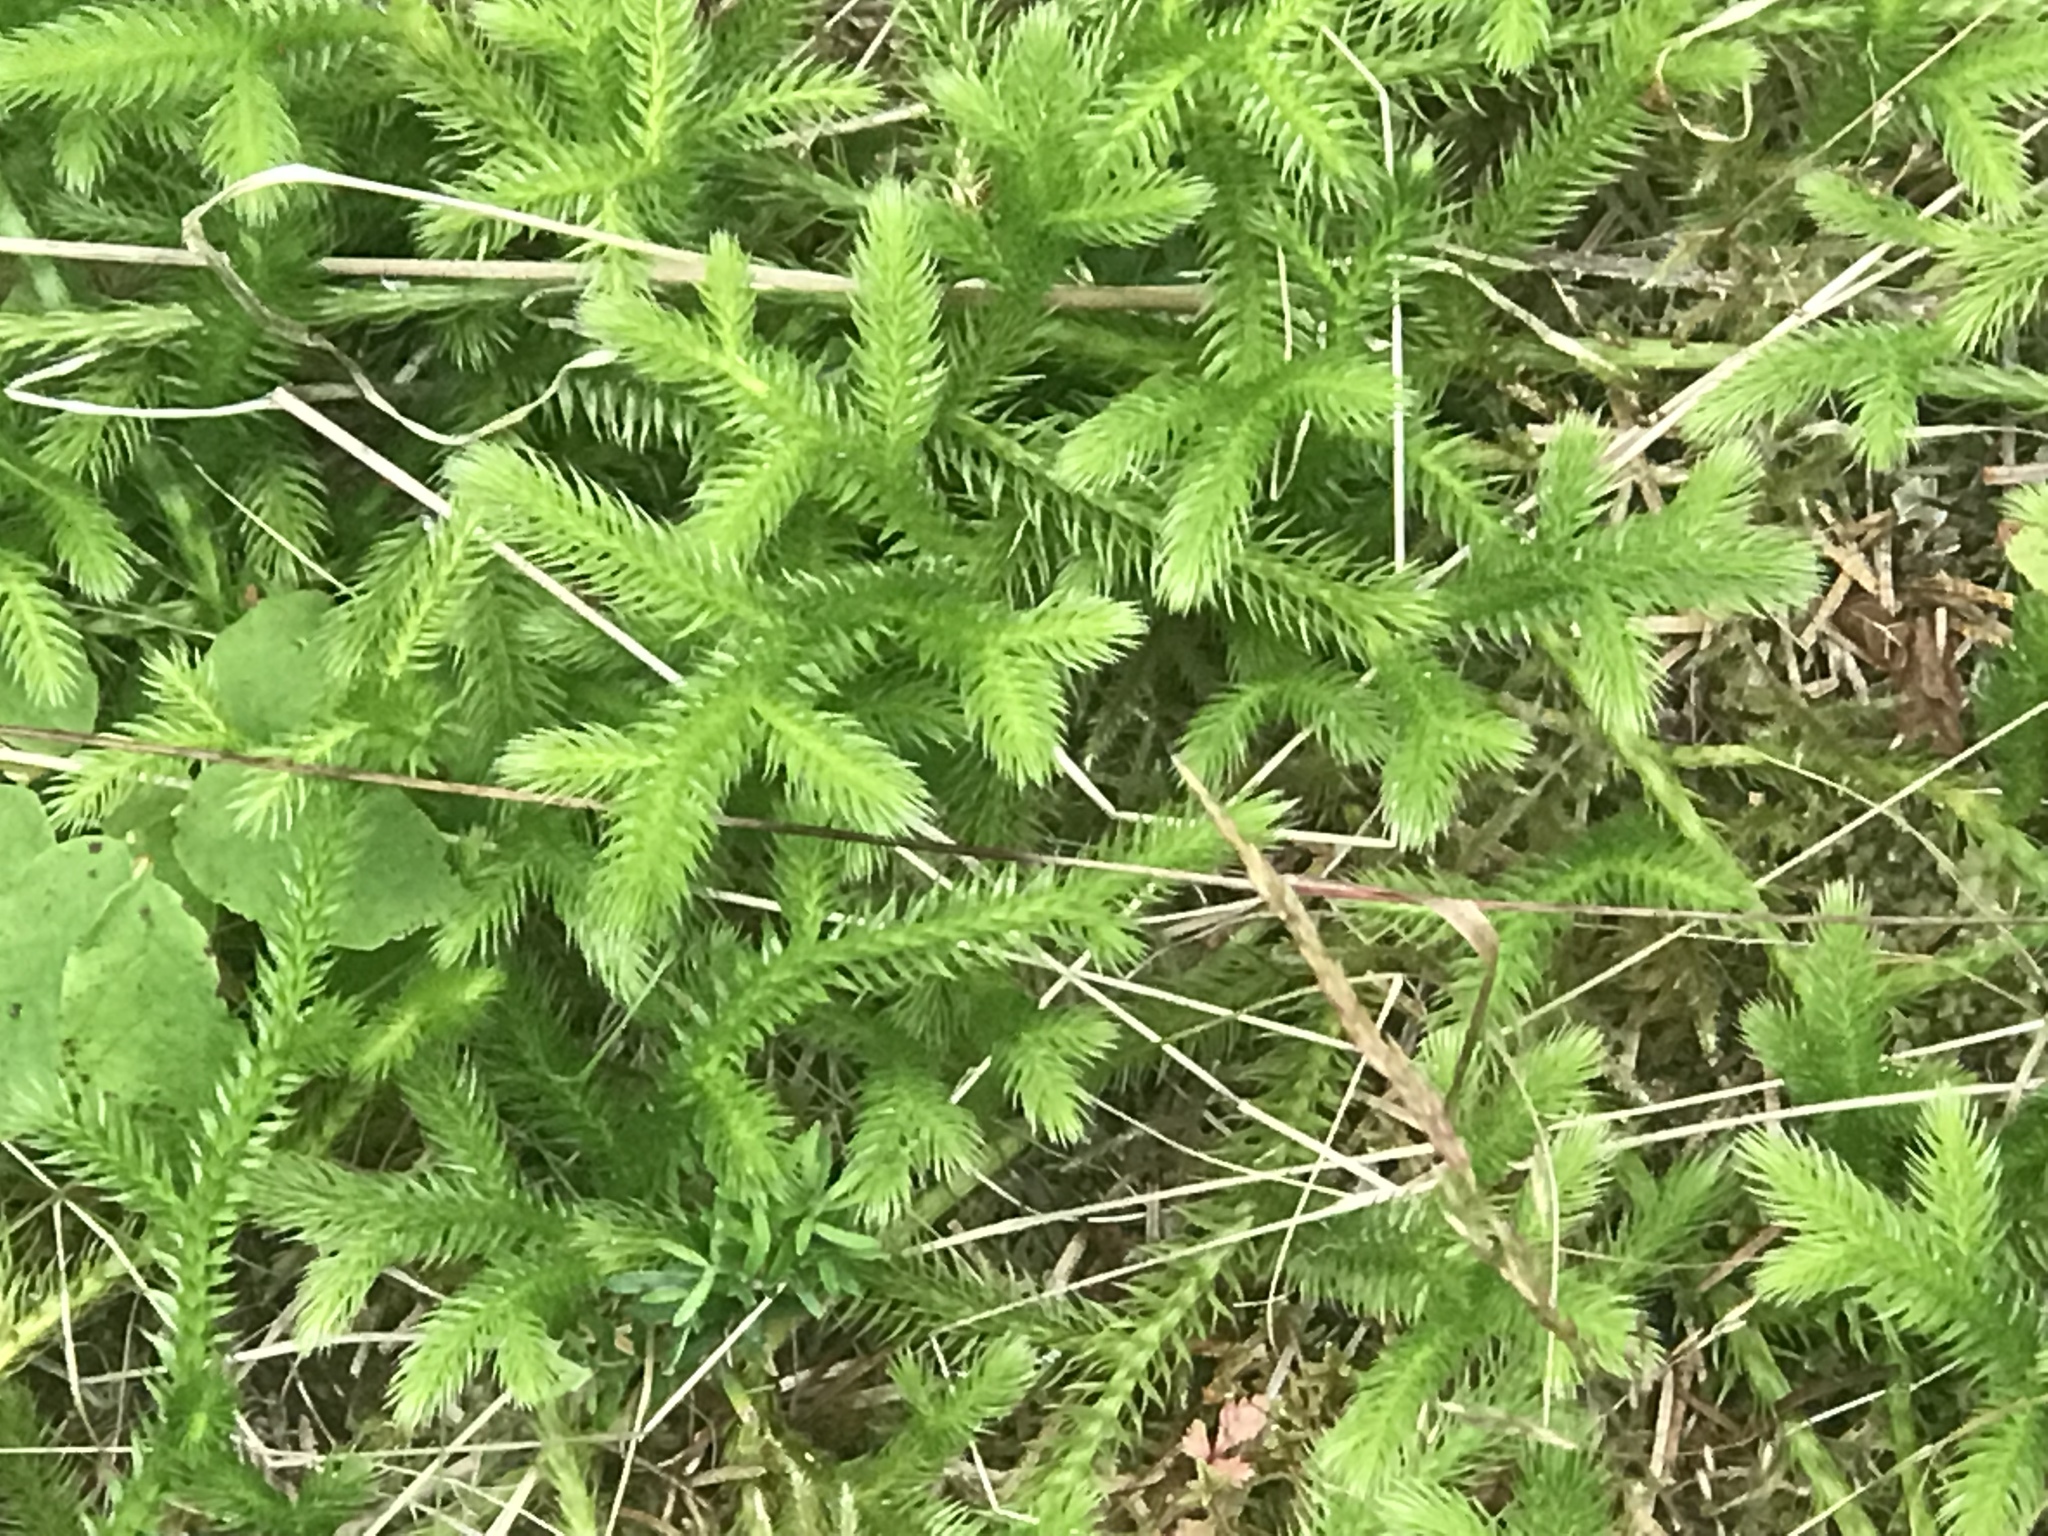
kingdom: Plantae
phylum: Tracheophyta
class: Lycopodiopsida
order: Lycopodiales
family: Lycopodiaceae
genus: Lycopodium
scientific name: Lycopodium clavatum
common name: Stag's-horn clubmoss
